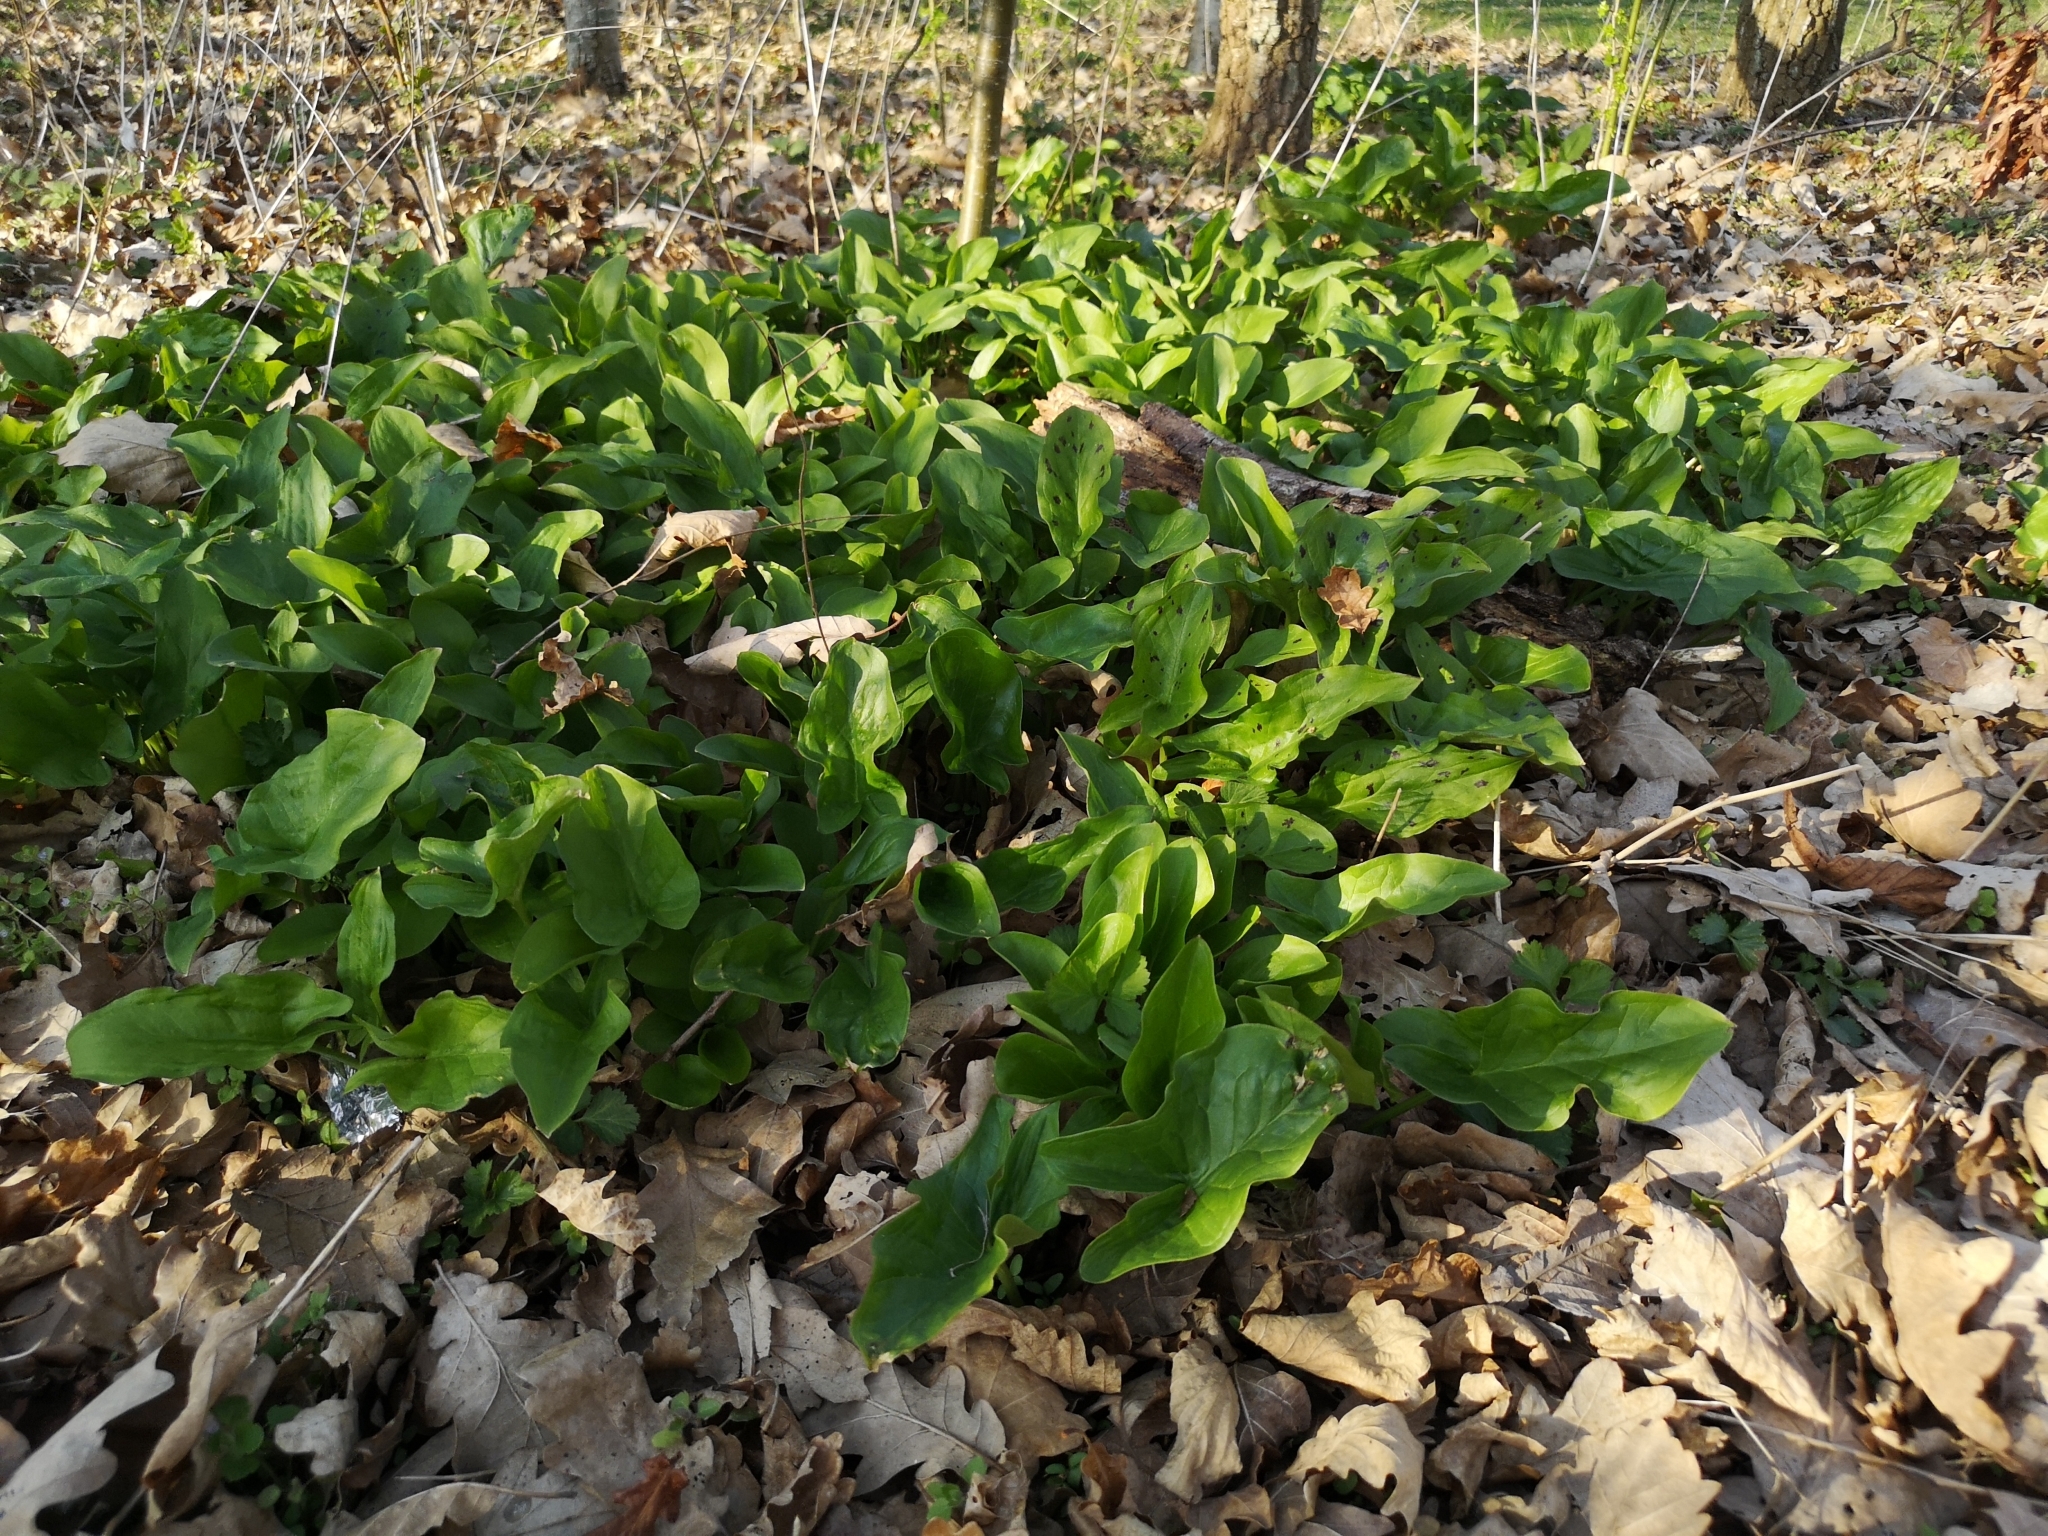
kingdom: Plantae
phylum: Tracheophyta
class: Liliopsida
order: Alismatales
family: Araceae
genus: Arum
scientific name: Arum maculatum
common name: Lords-and-ladies
